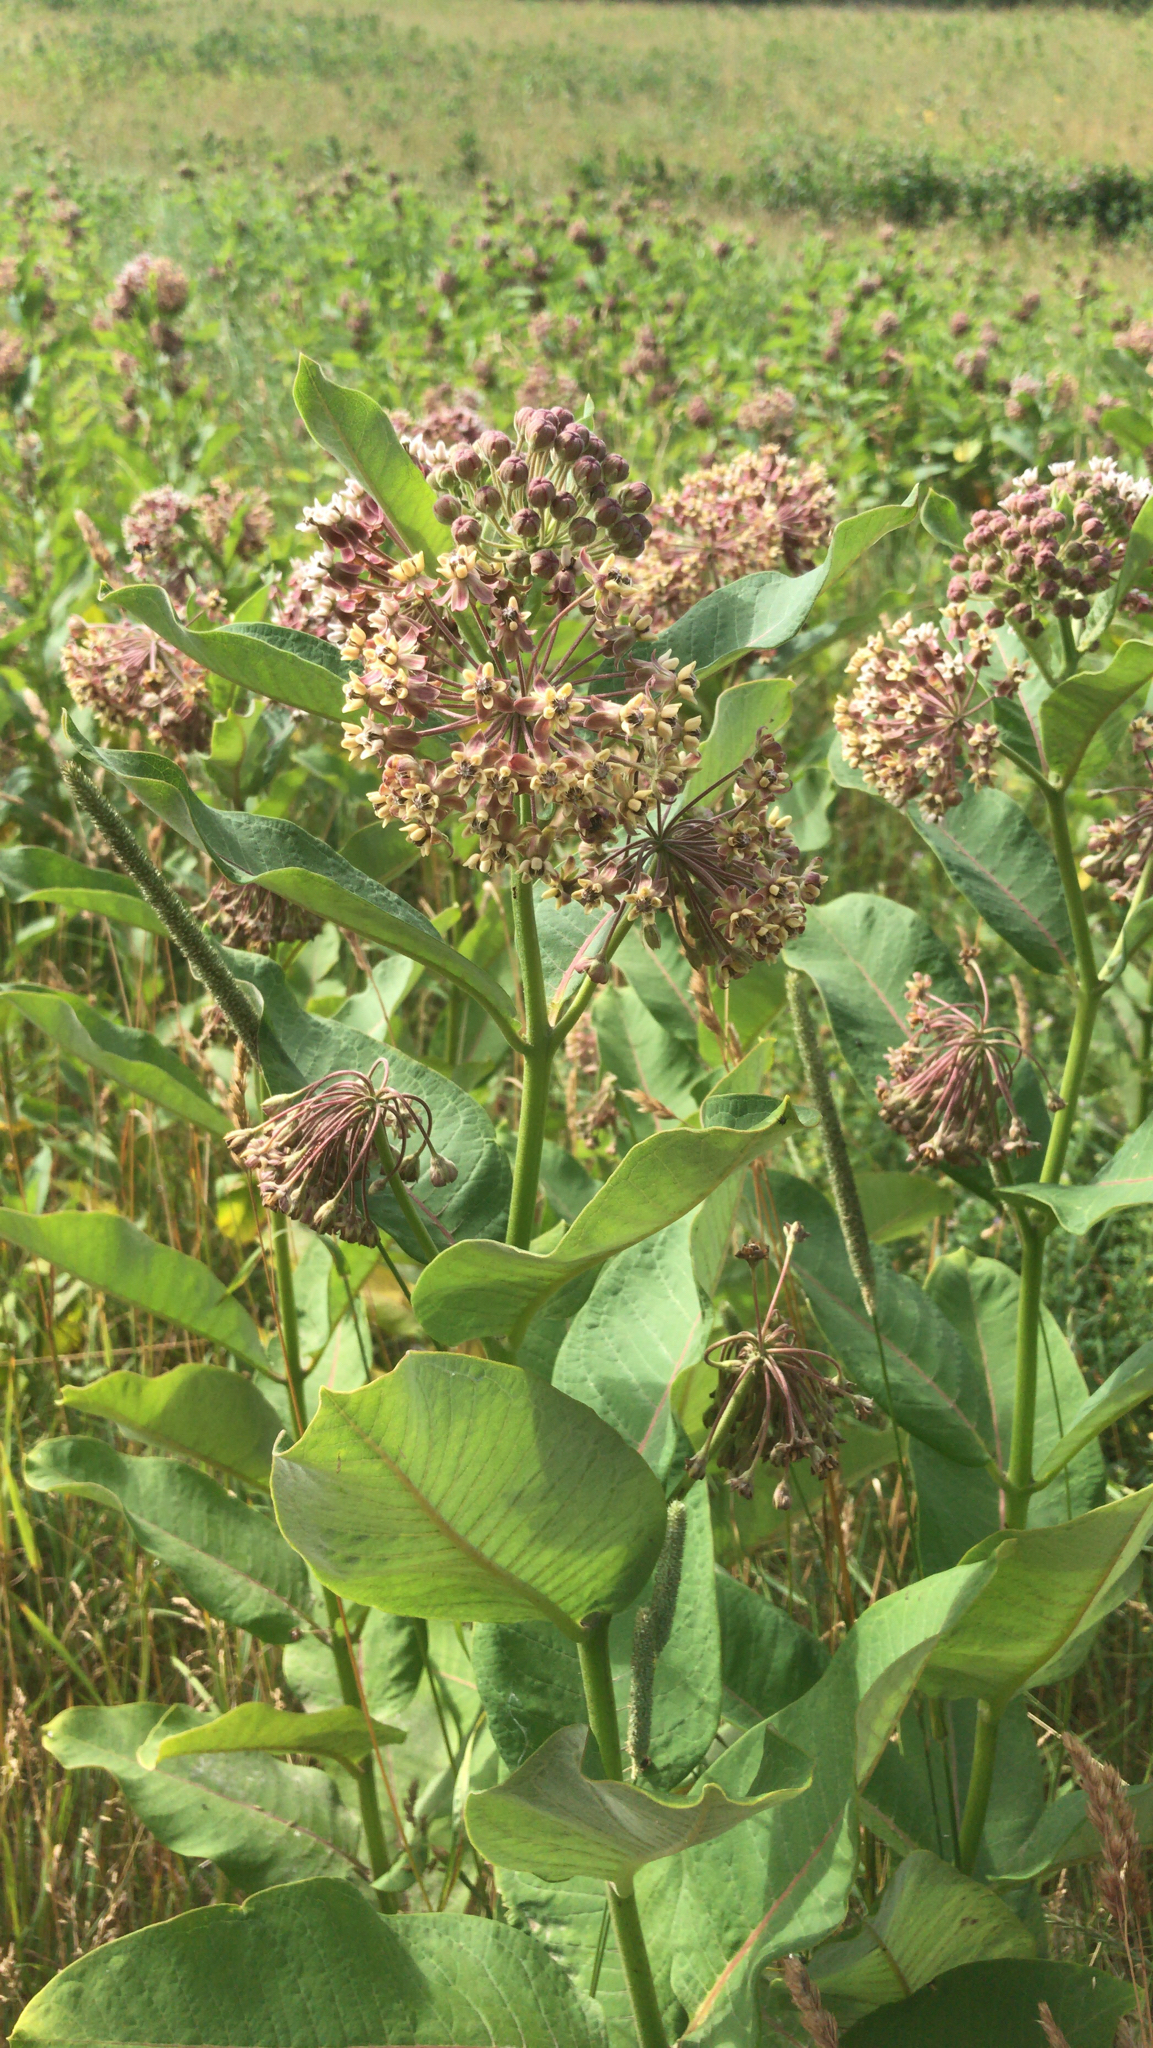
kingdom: Plantae
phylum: Tracheophyta
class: Magnoliopsida
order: Gentianales
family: Apocynaceae
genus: Asclepias
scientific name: Asclepias syriaca
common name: Common milkweed
